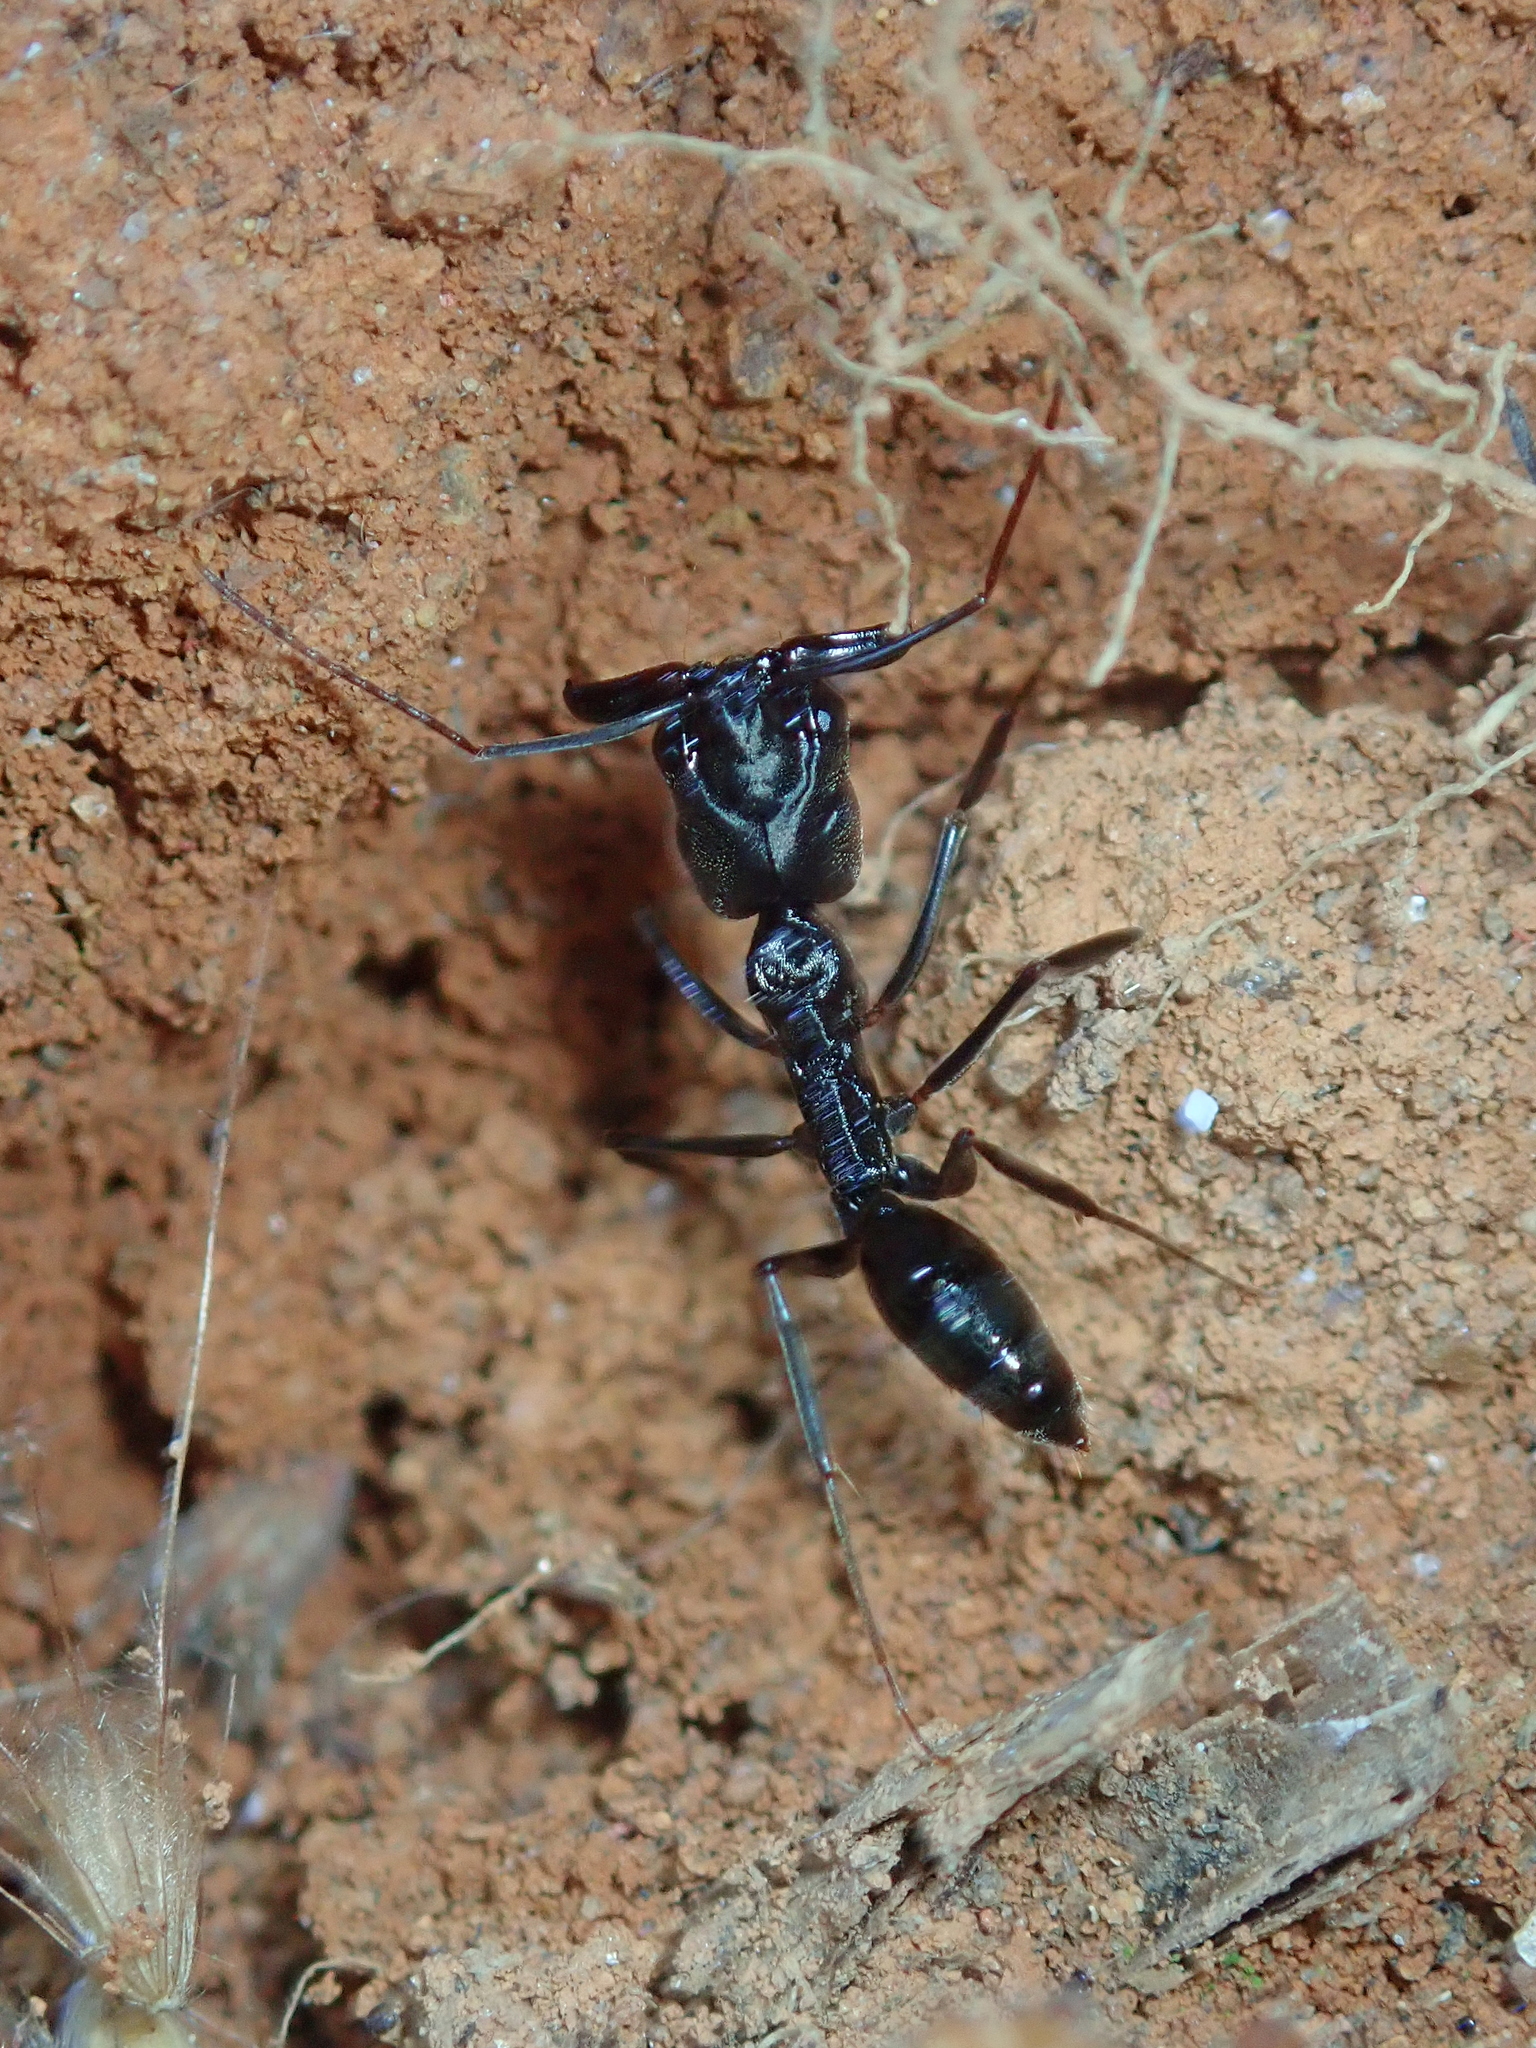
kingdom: Animalia
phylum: Arthropoda
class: Insecta
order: Hymenoptera
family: Formicidae
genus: Odontomachus
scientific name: Odontomachus
